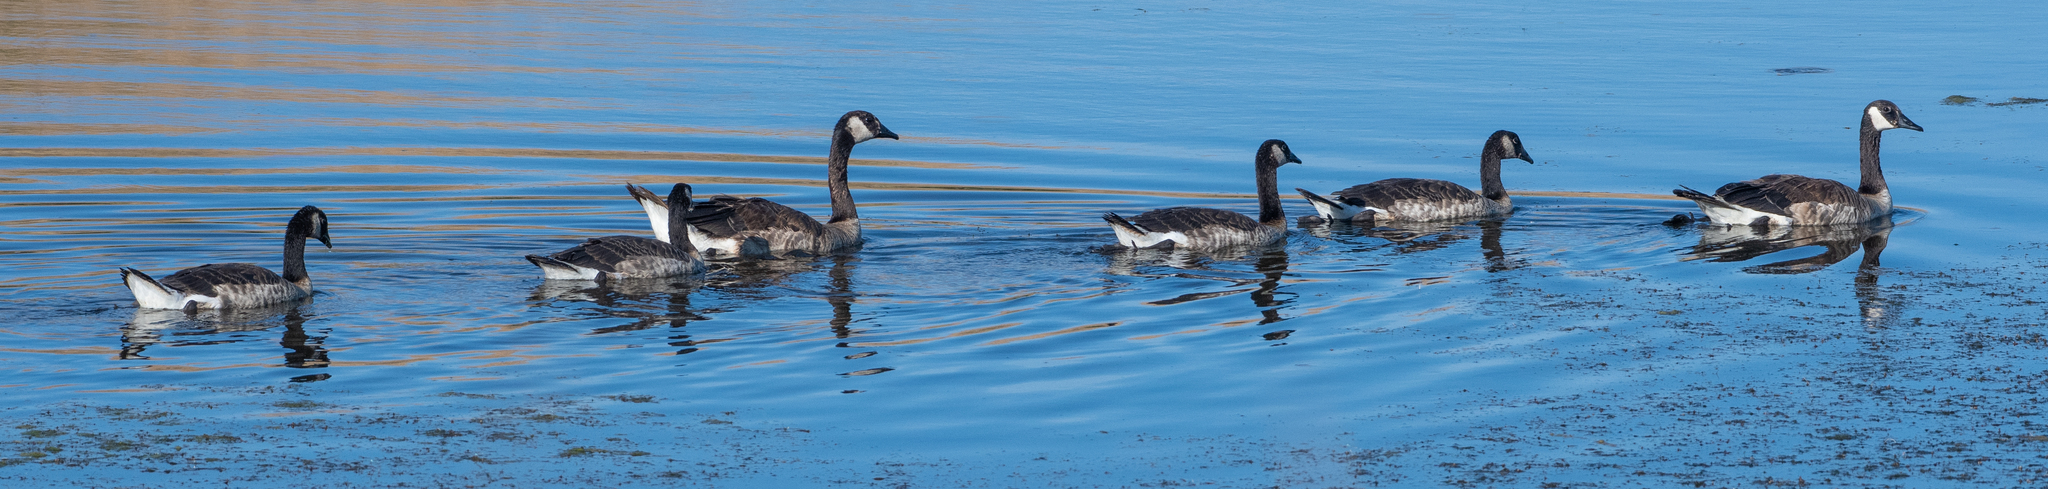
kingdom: Animalia
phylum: Chordata
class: Aves
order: Anseriformes
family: Anatidae
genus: Branta
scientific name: Branta canadensis
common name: Canada goose
